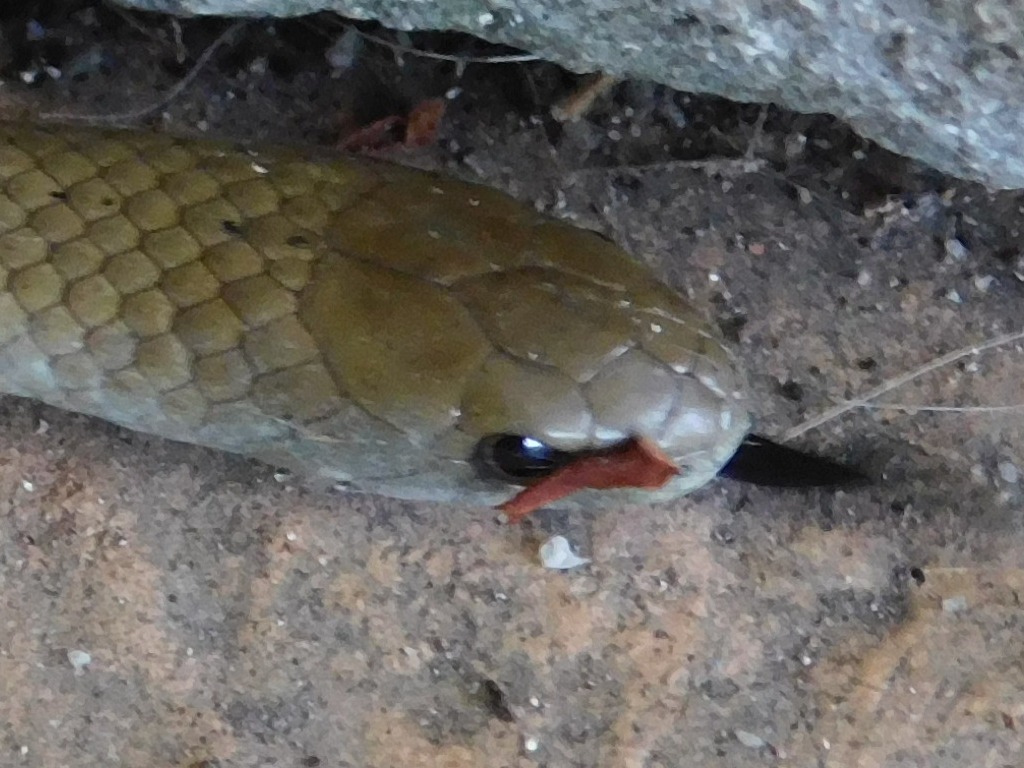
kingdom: Animalia
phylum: Chordata
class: Squamata
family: Pseudoxyrhophiidae
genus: Duberria
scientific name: Duberria lutrix
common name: Common slug eater
